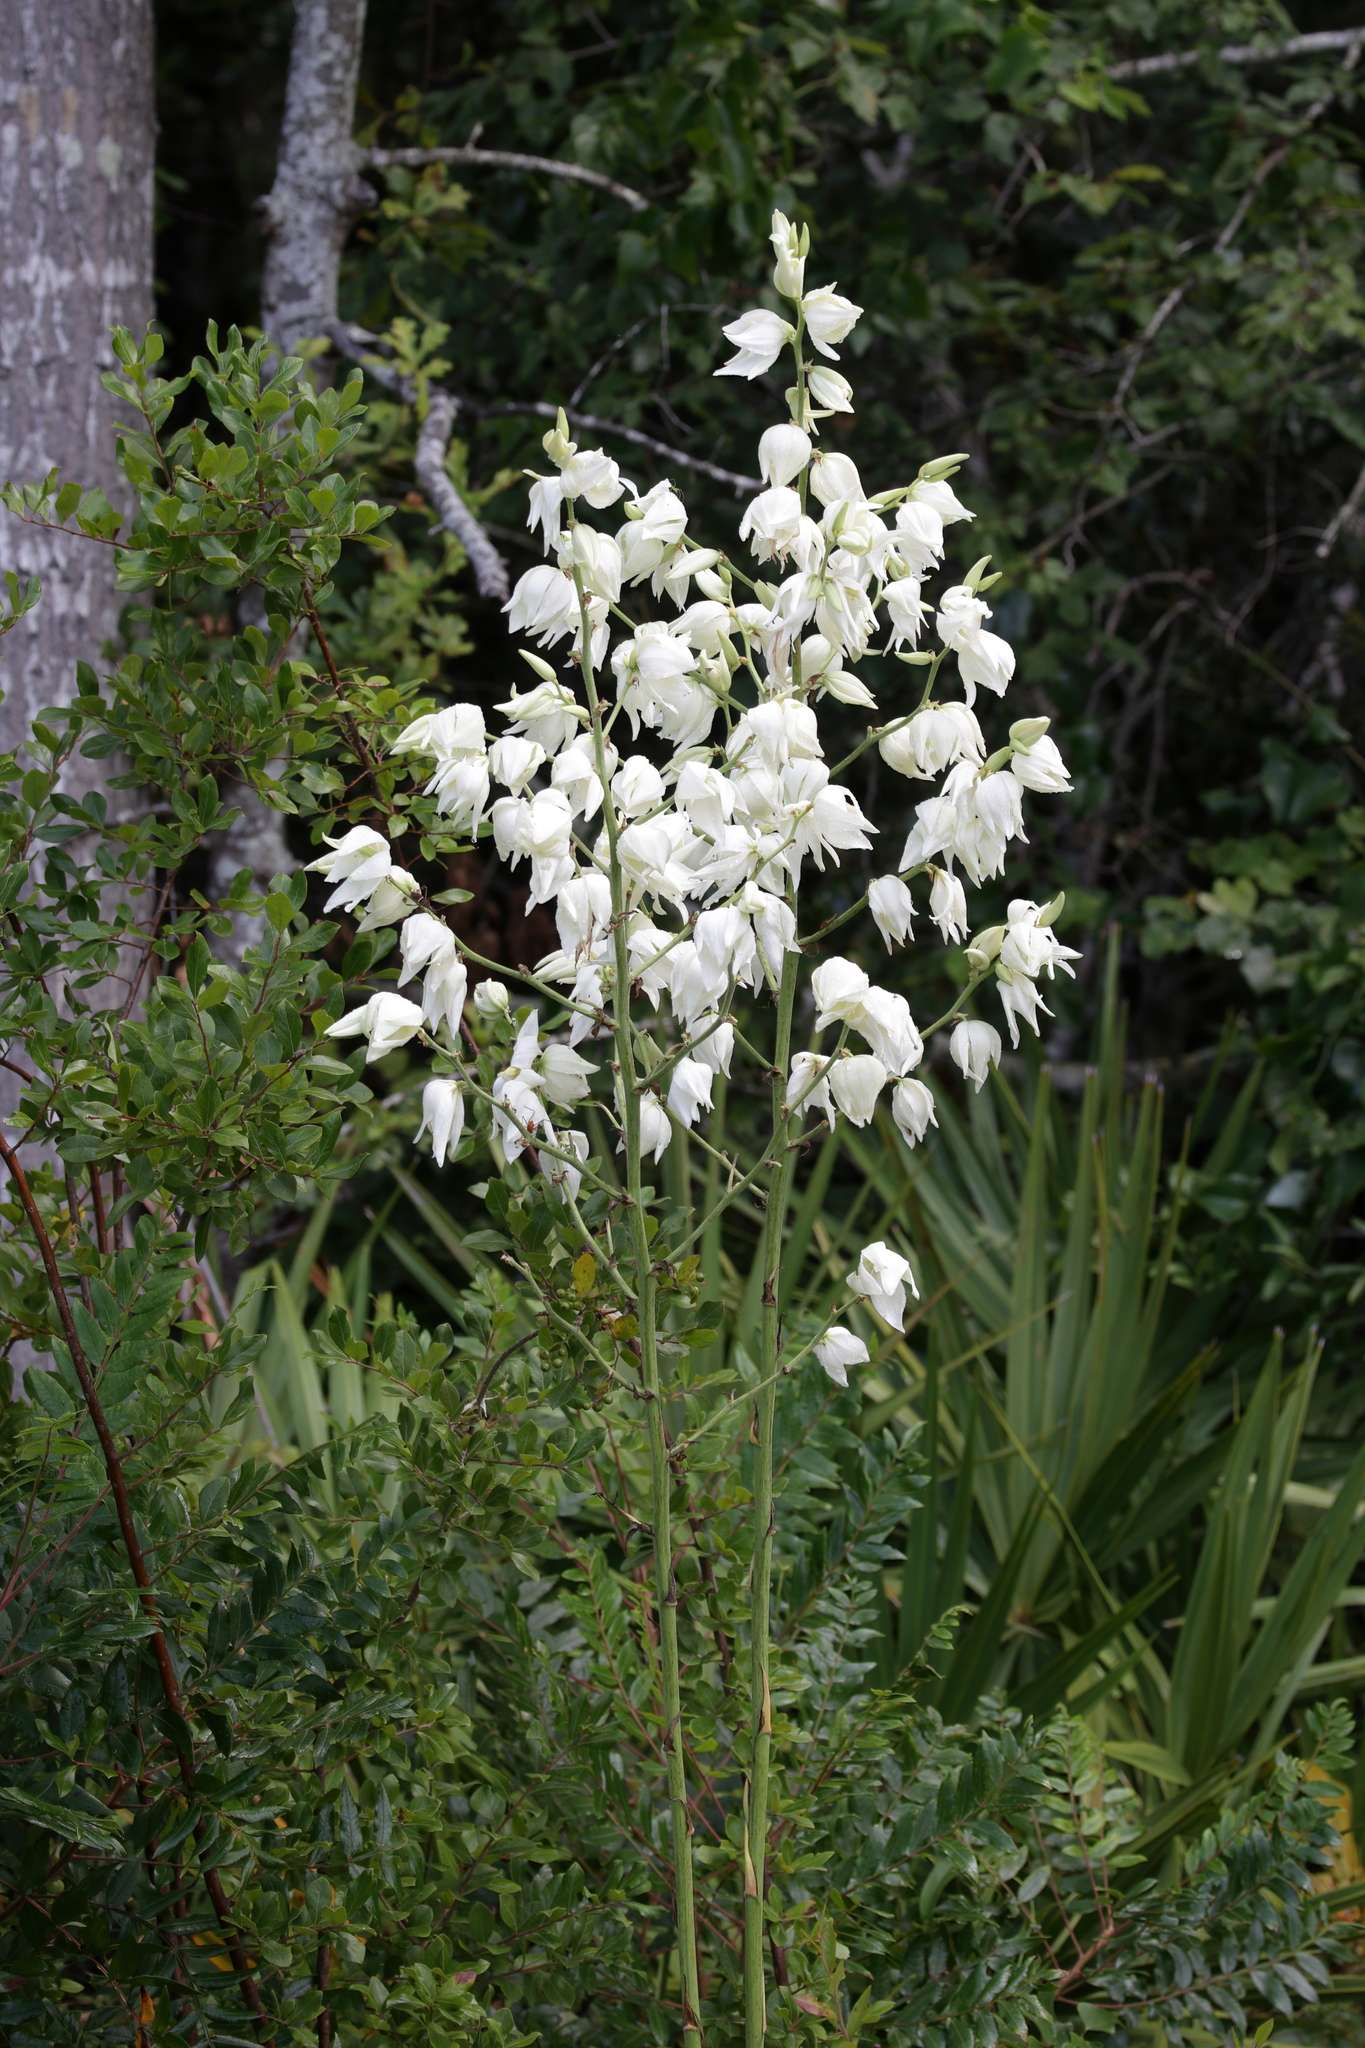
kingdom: Plantae
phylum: Tracheophyta
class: Liliopsida
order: Asparagales
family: Asparagaceae
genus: Yucca
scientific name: Yucca filamentosa
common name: Adam's-needle
